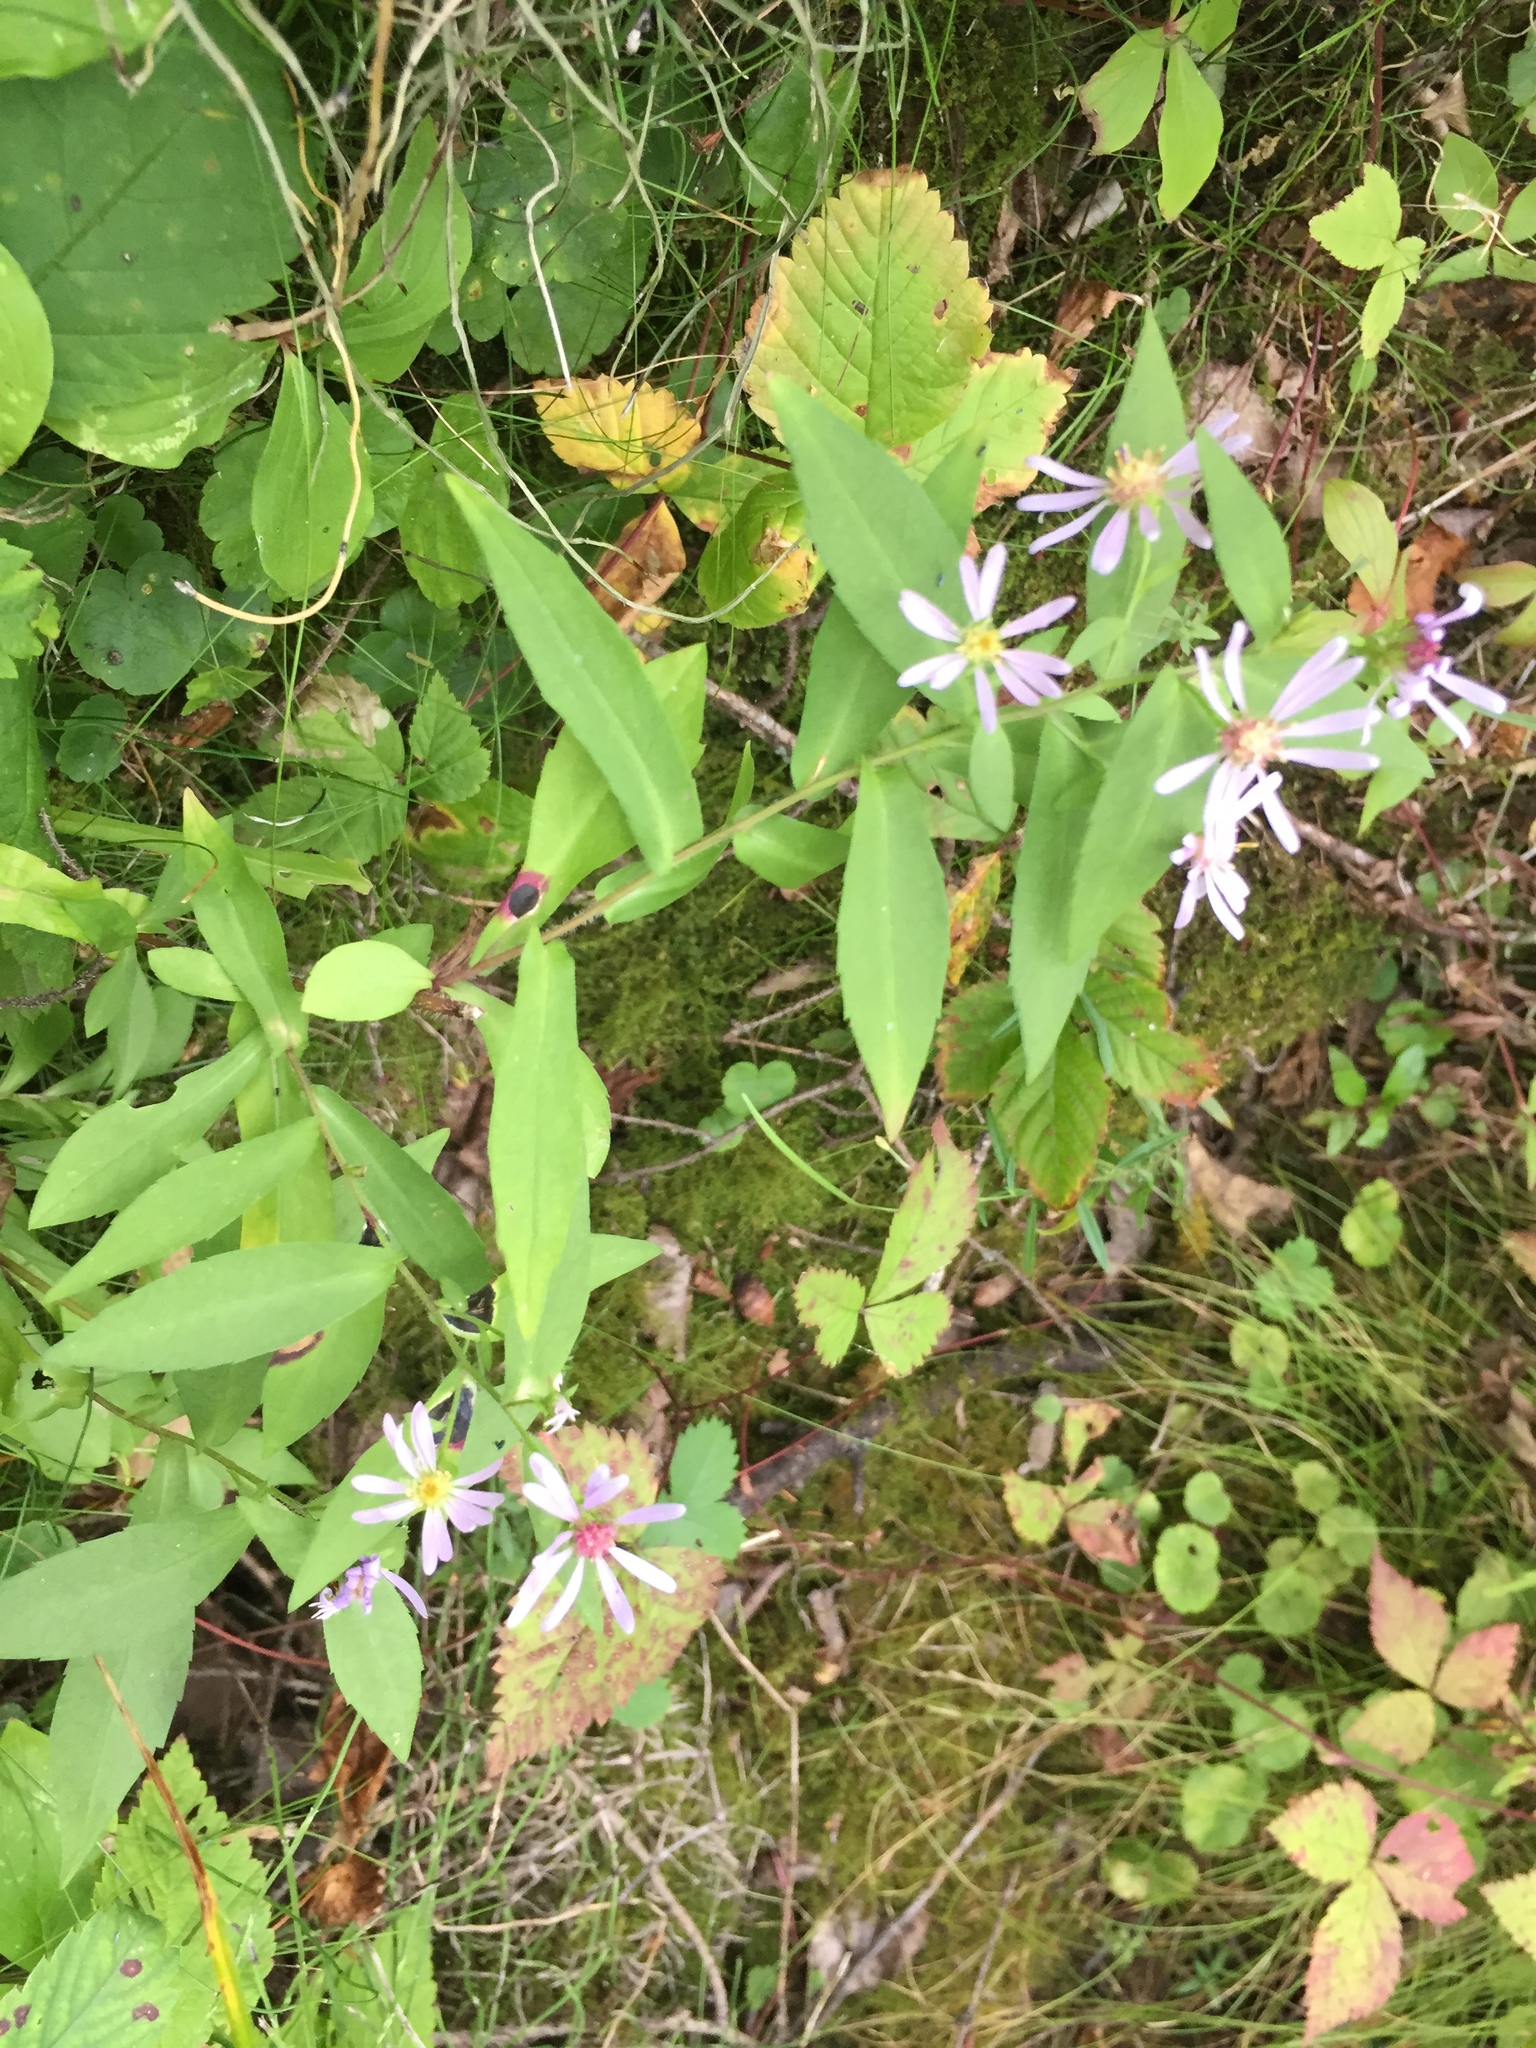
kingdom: Plantae
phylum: Tracheophyta
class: Magnoliopsida
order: Asterales
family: Asteraceae
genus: Symphyotrichum
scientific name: Symphyotrichum laeve
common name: Glaucous aster
